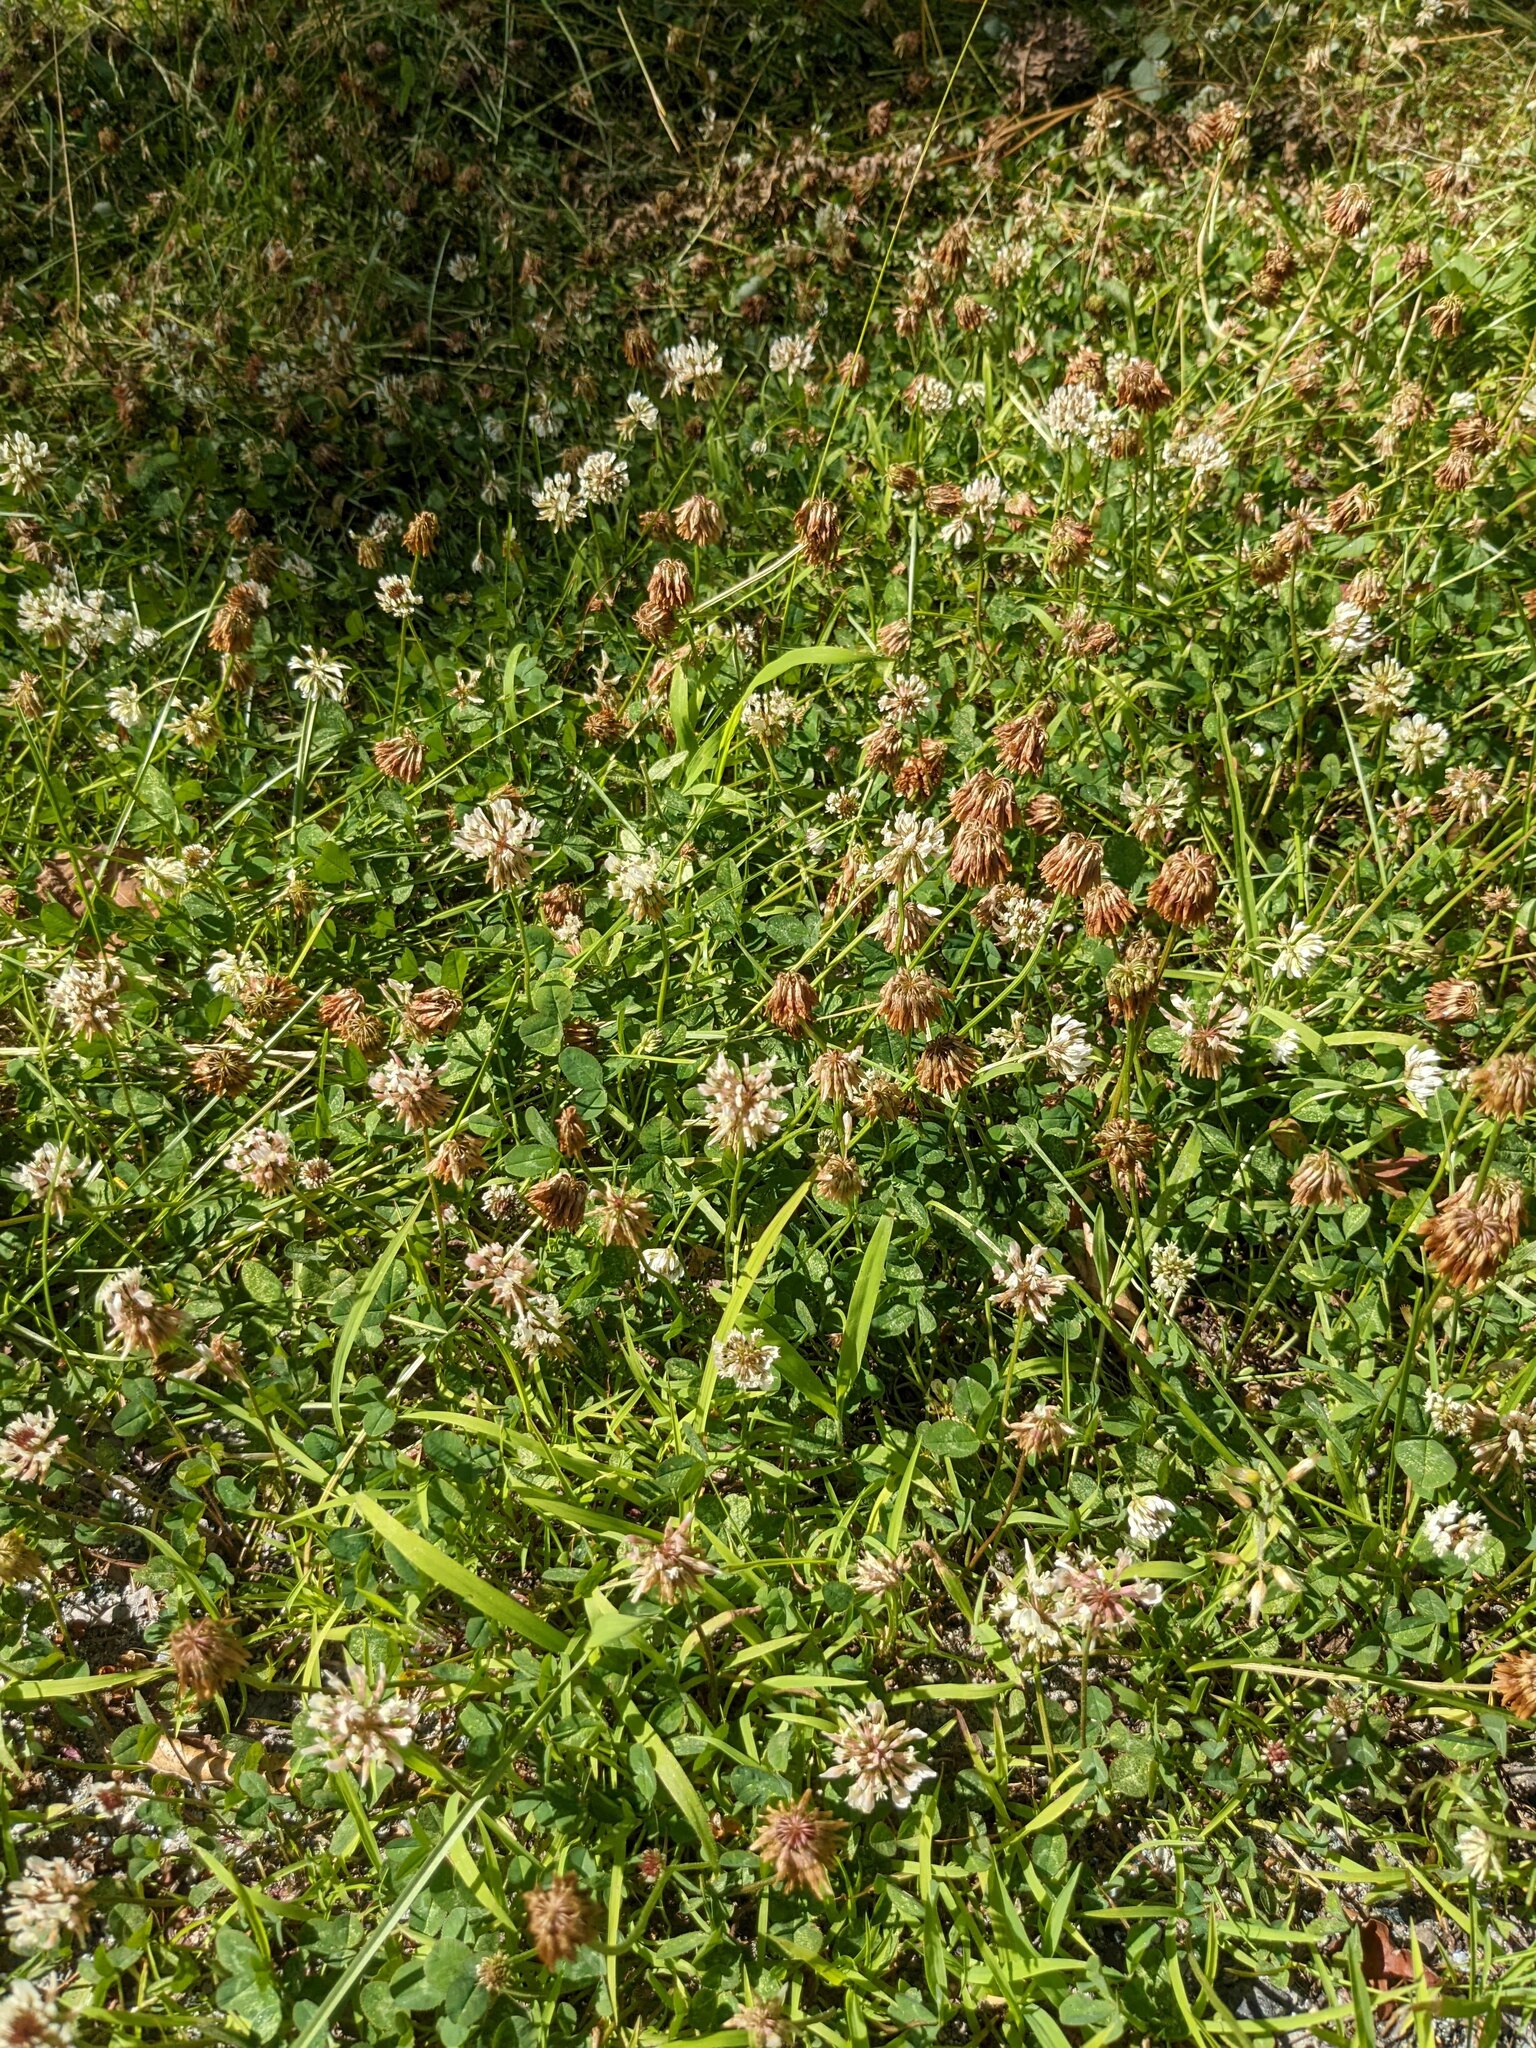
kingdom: Plantae
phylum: Tracheophyta
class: Magnoliopsida
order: Fabales
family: Fabaceae
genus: Trifolium
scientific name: Trifolium repens
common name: White clover
